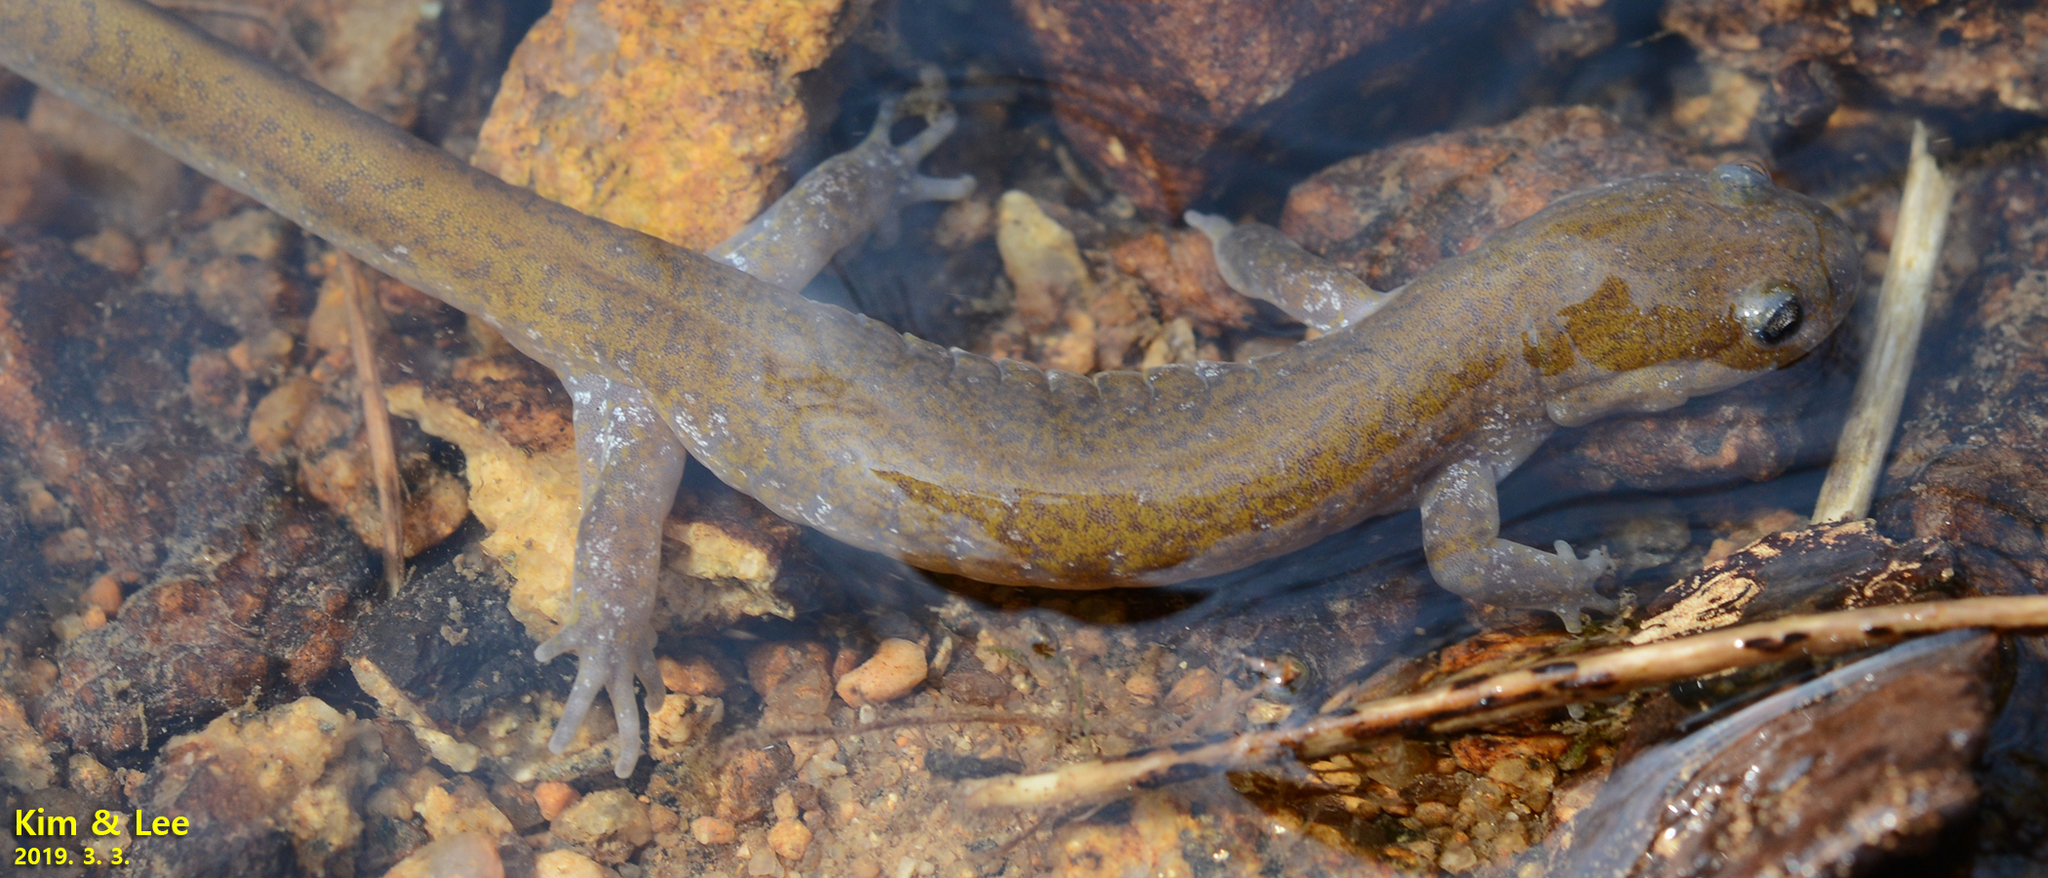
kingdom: Animalia
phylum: Chordata
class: Amphibia
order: Caudata
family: Hynobiidae
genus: Hynobius
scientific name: Hynobius notialis
